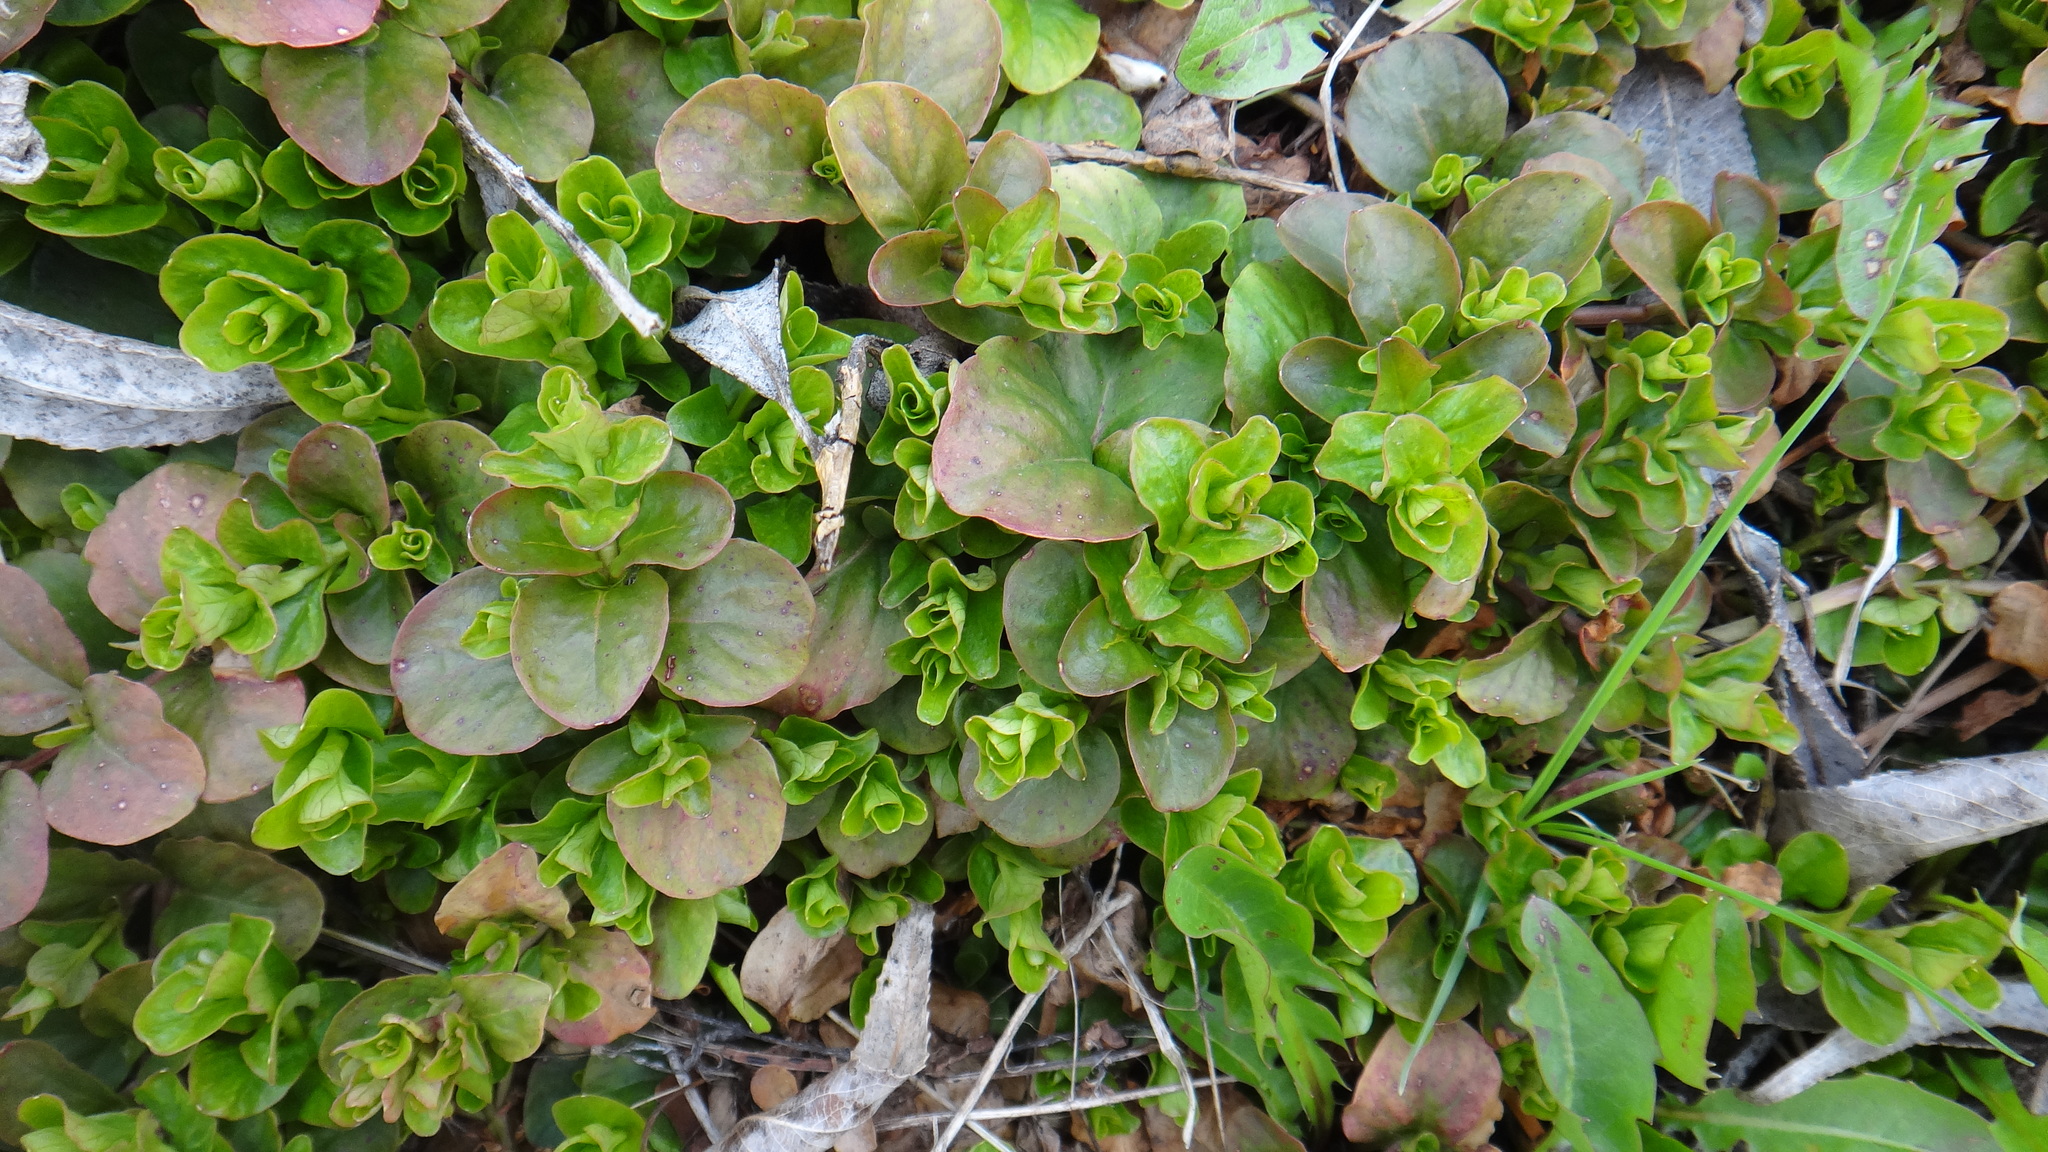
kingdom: Plantae
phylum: Tracheophyta
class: Magnoliopsida
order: Ericales
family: Primulaceae
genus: Lysimachia
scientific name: Lysimachia nummularia
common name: Moneywort
